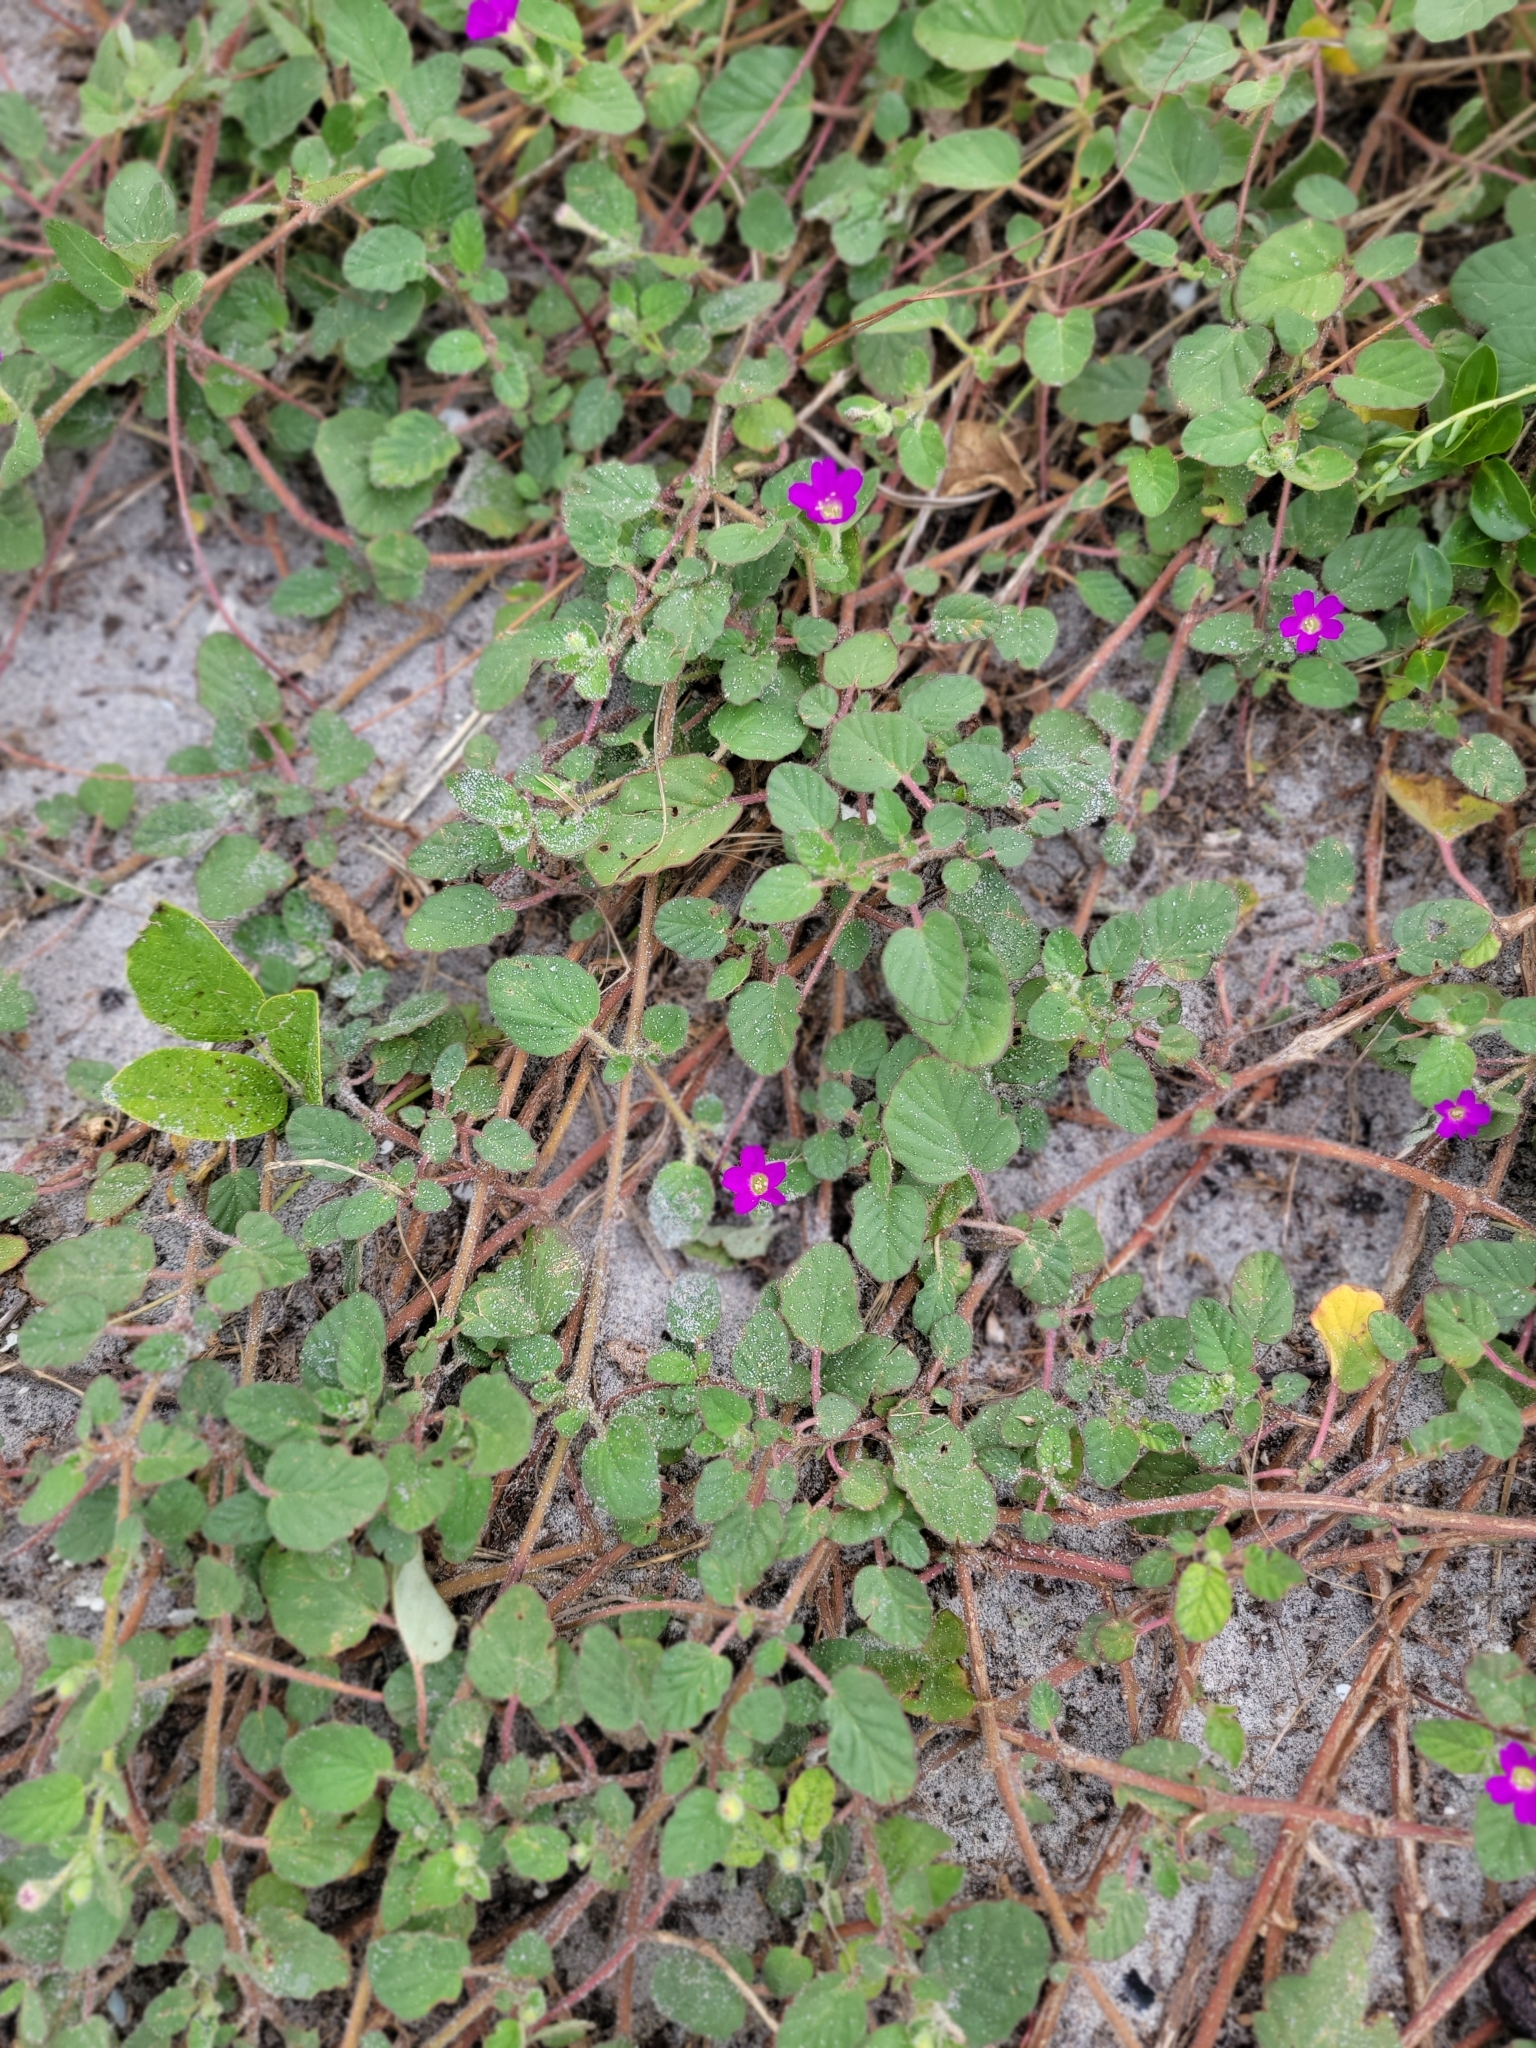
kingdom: Plantae
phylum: Tracheophyta
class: Magnoliopsida
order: Caryophyllales
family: Nyctaginaceae
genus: Okenia
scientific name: Okenia hypogaea
